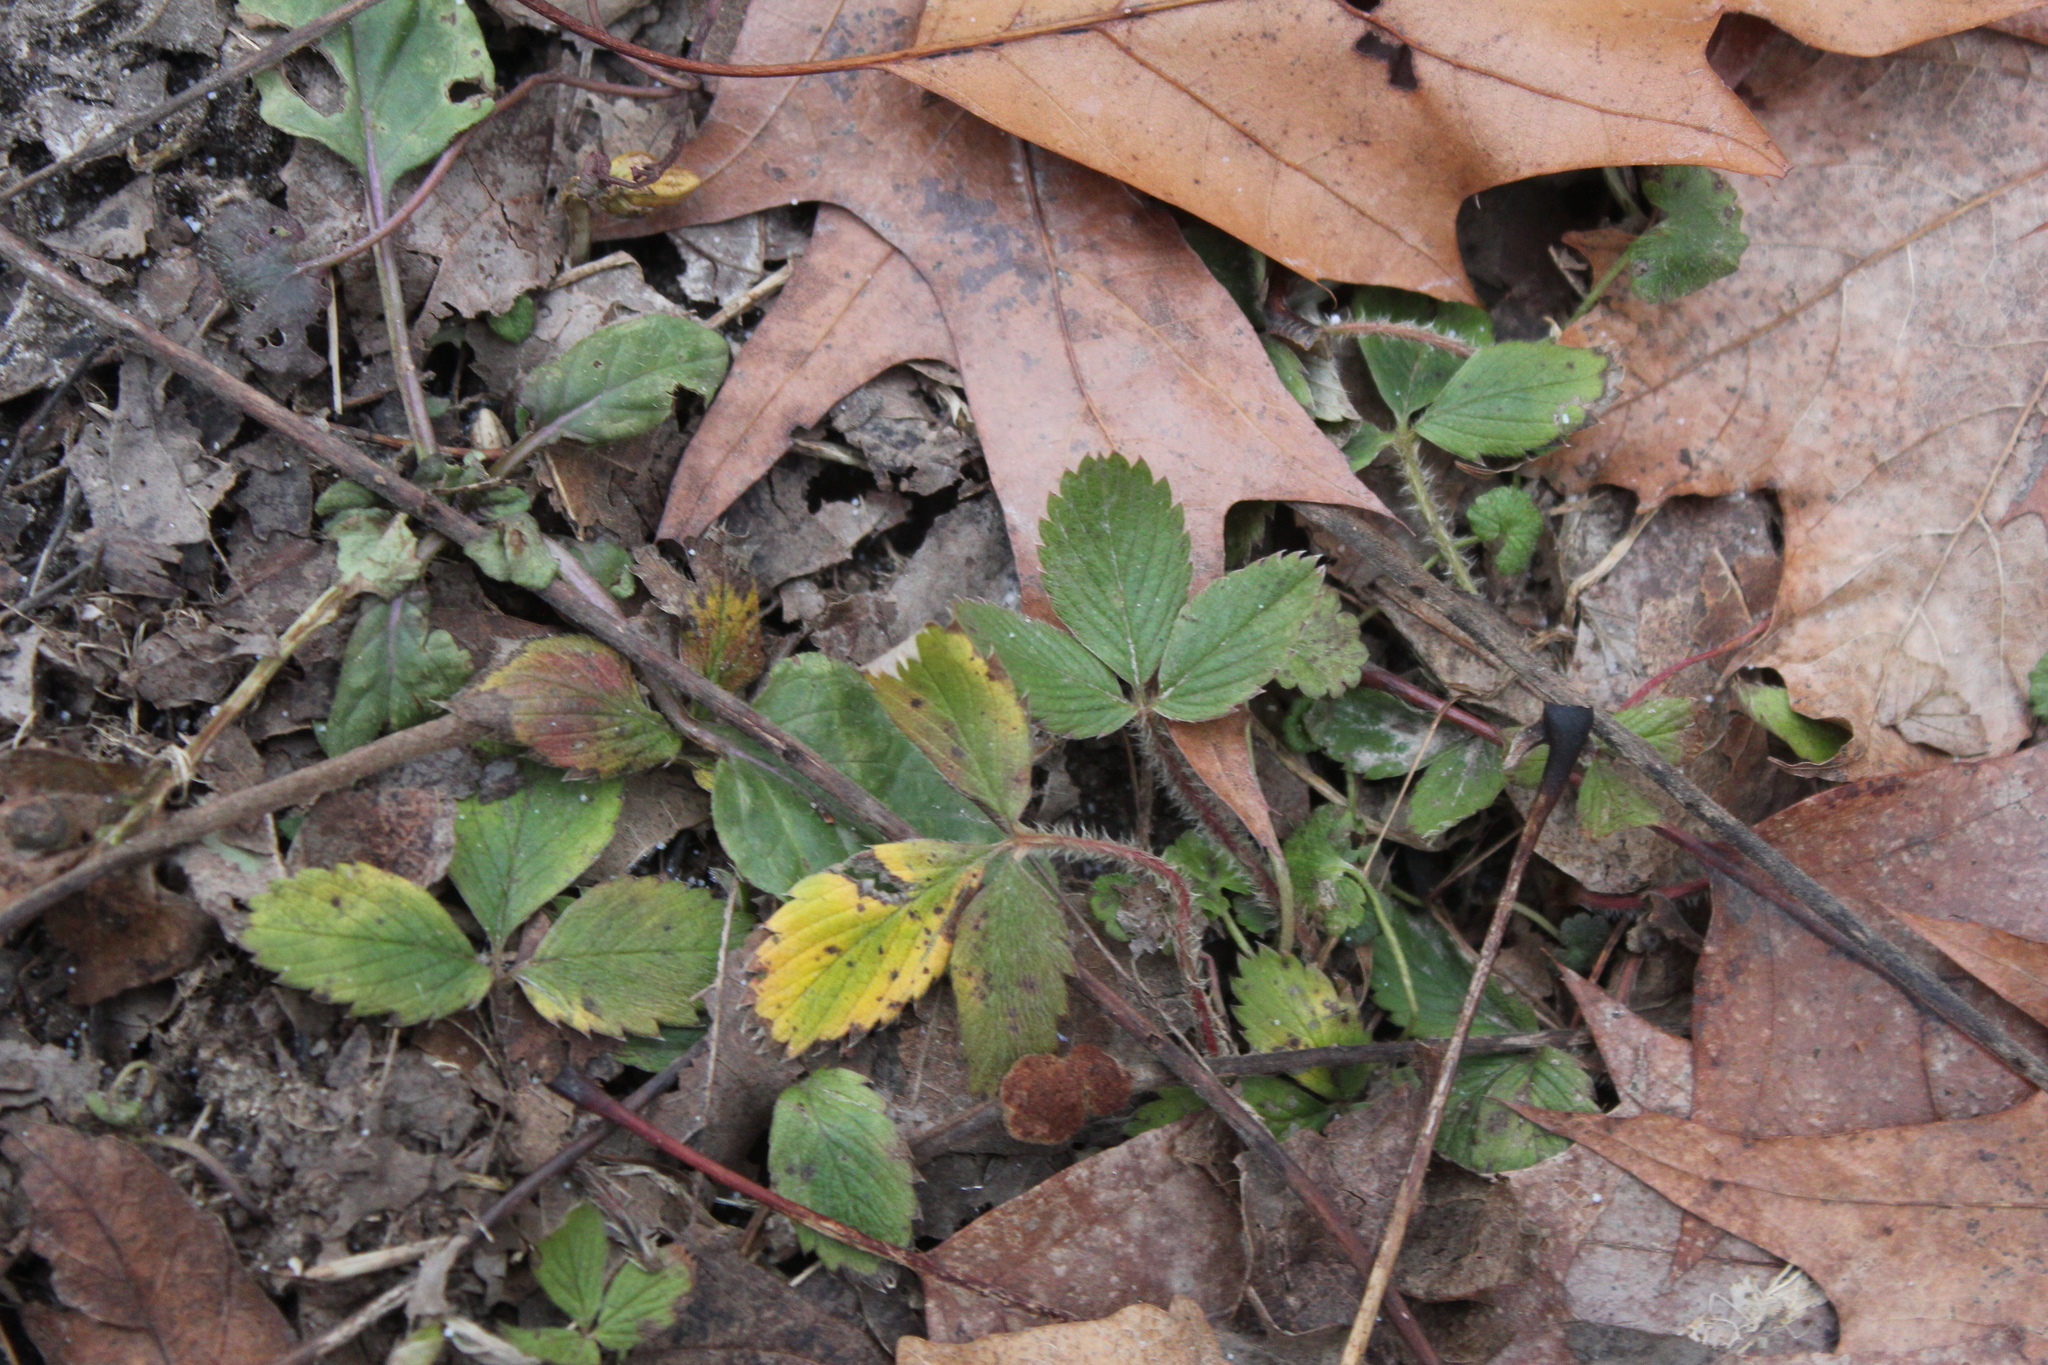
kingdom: Plantae
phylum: Tracheophyta
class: Magnoliopsida
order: Rosales
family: Rosaceae
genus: Fragaria
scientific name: Fragaria virginiana
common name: Thickleaved wild strawberry
